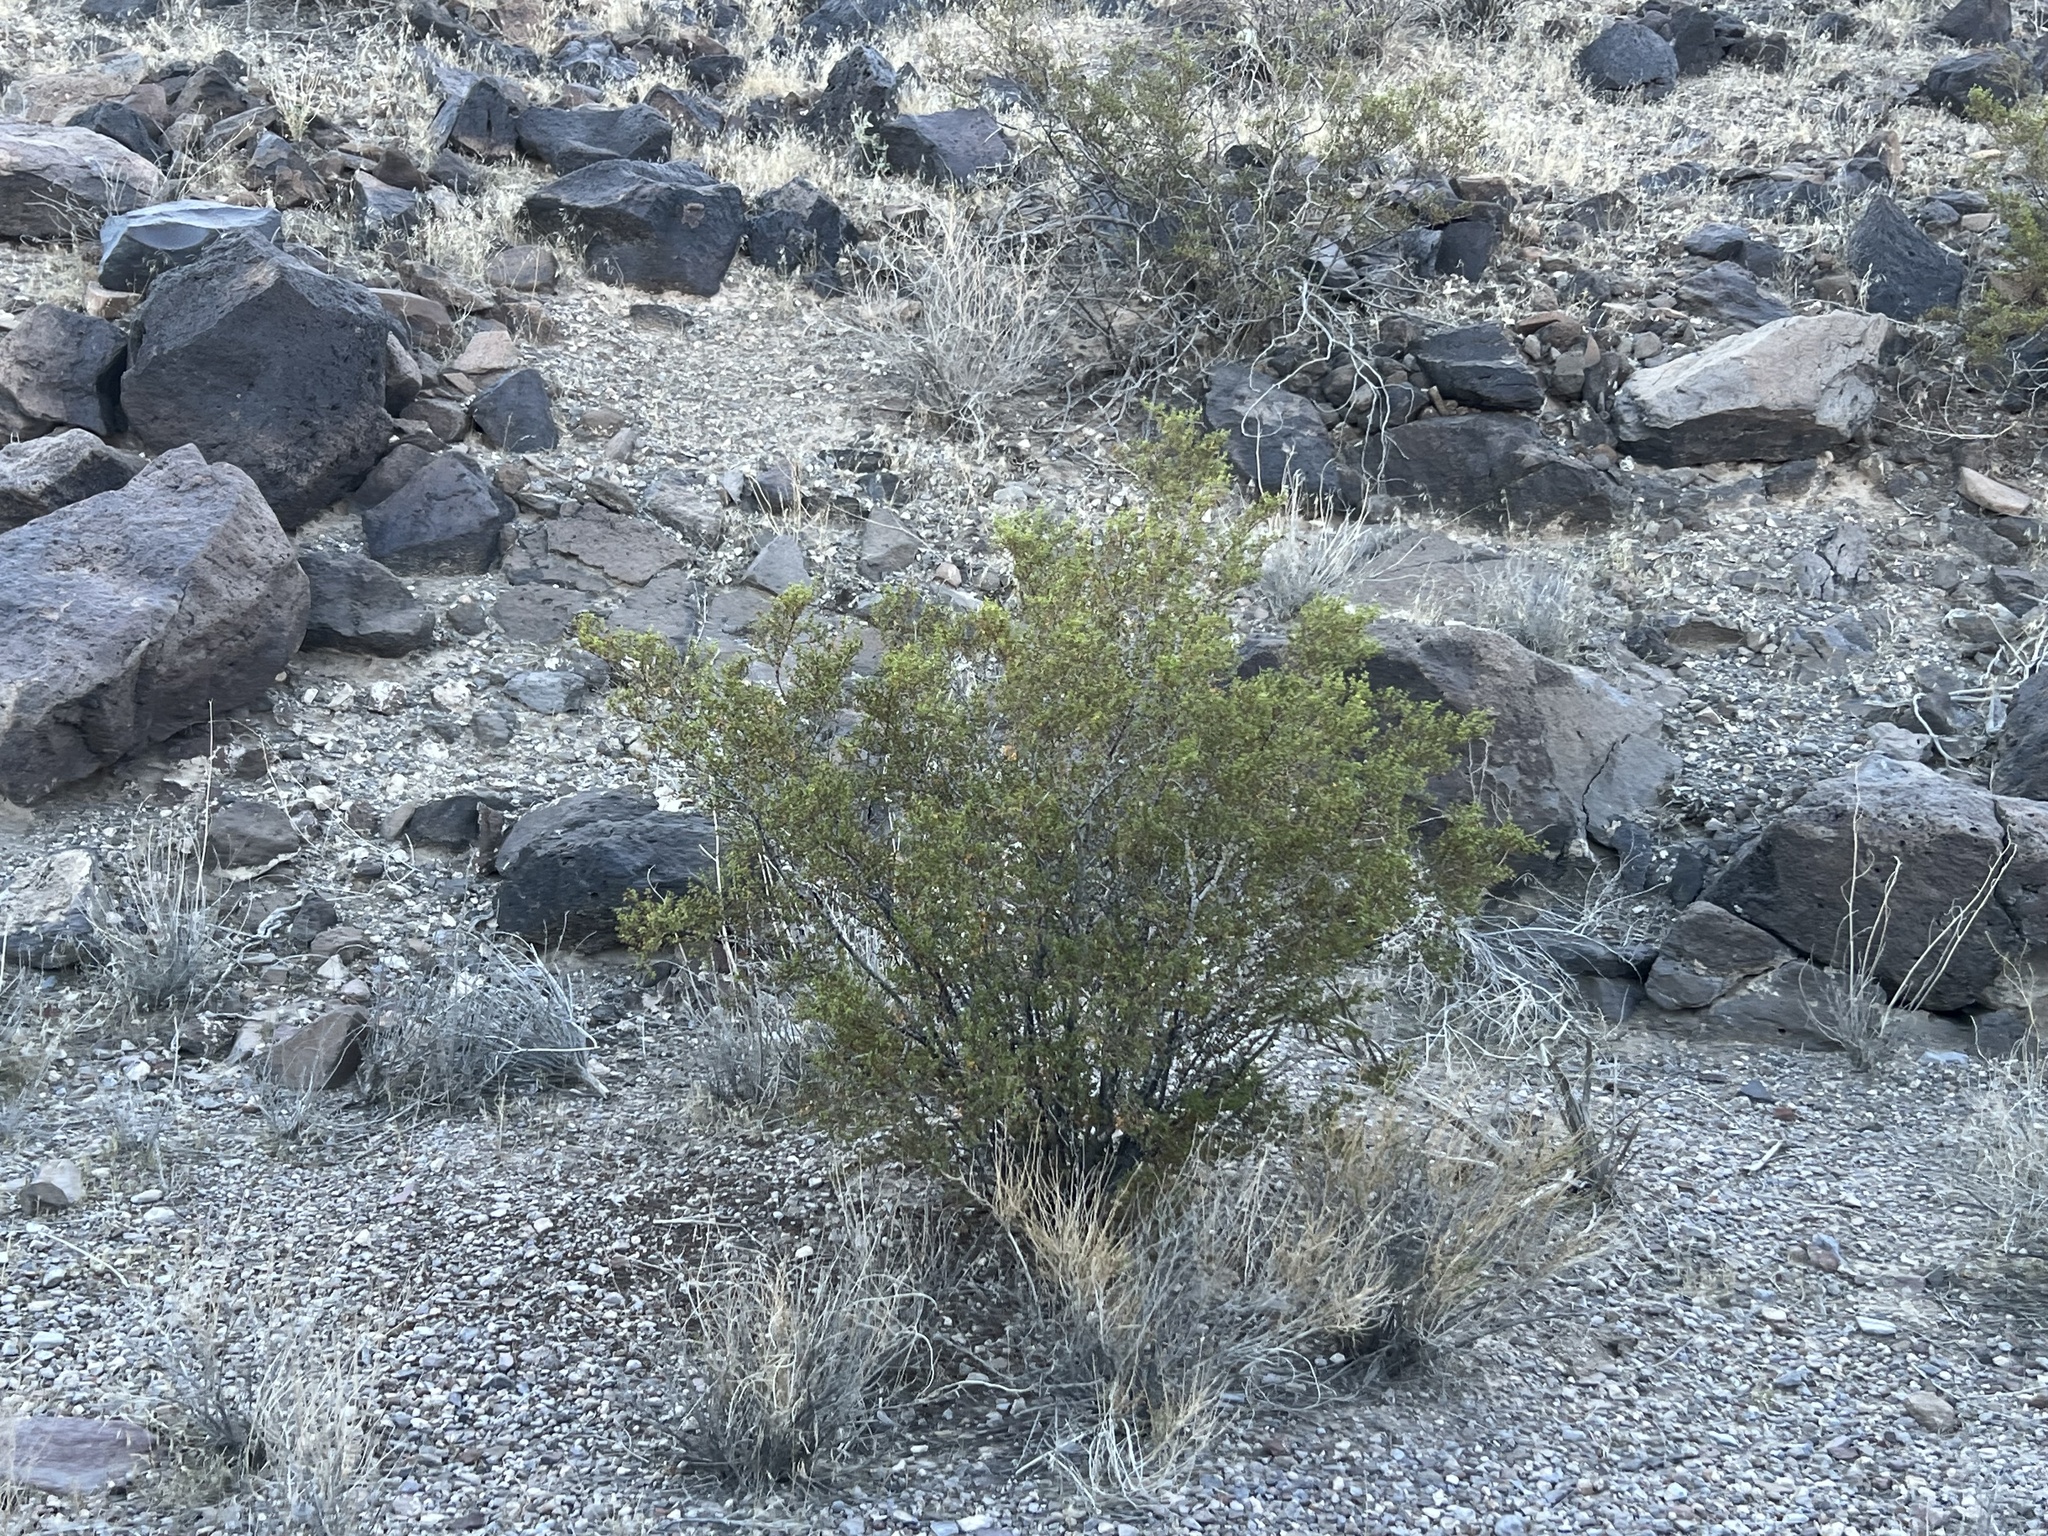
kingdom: Plantae
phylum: Tracheophyta
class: Magnoliopsida
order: Zygophyllales
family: Zygophyllaceae
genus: Larrea
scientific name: Larrea tridentata
